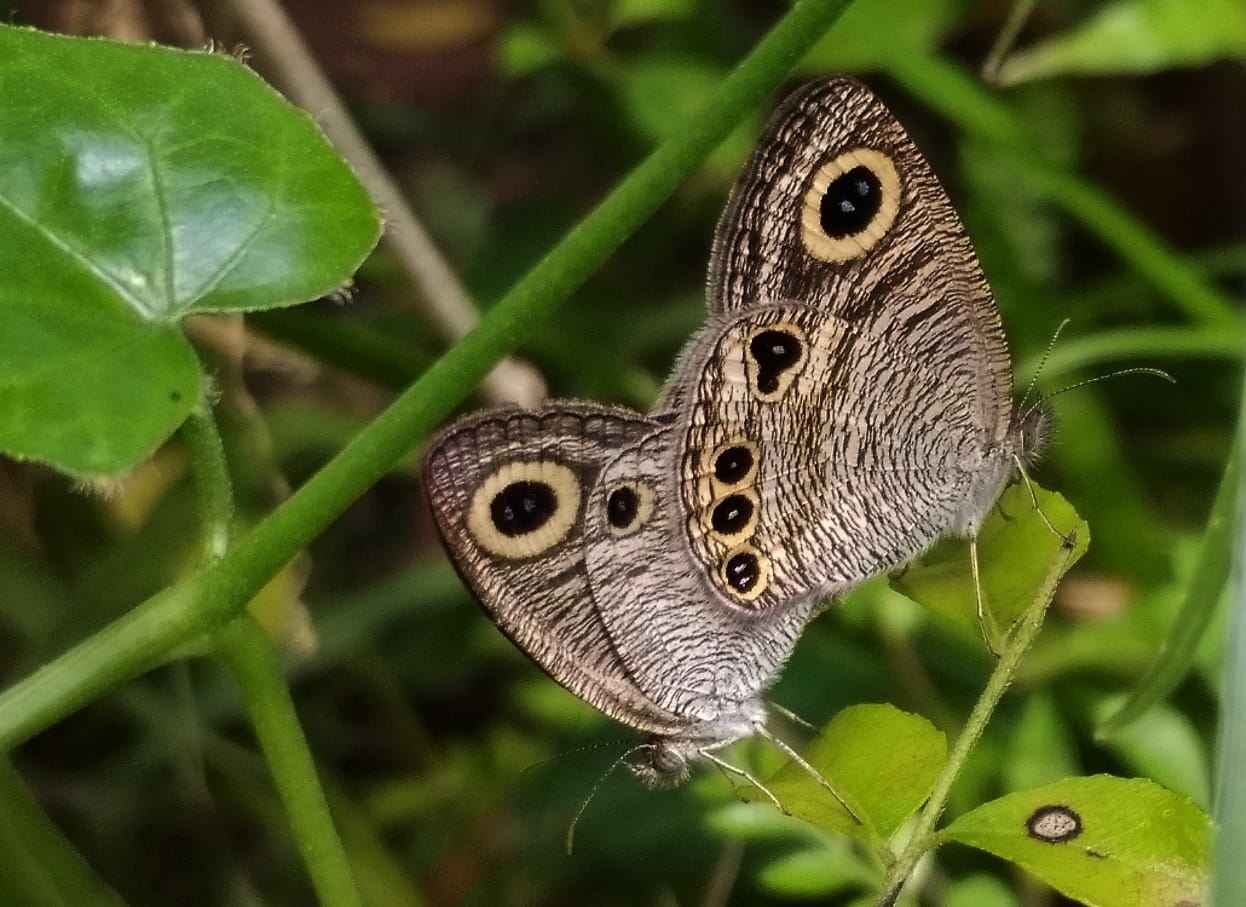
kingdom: Animalia
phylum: Arthropoda
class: Insecta
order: Lepidoptera
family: Nymphalidae
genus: Ypthima
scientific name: Ypthima huebneri
